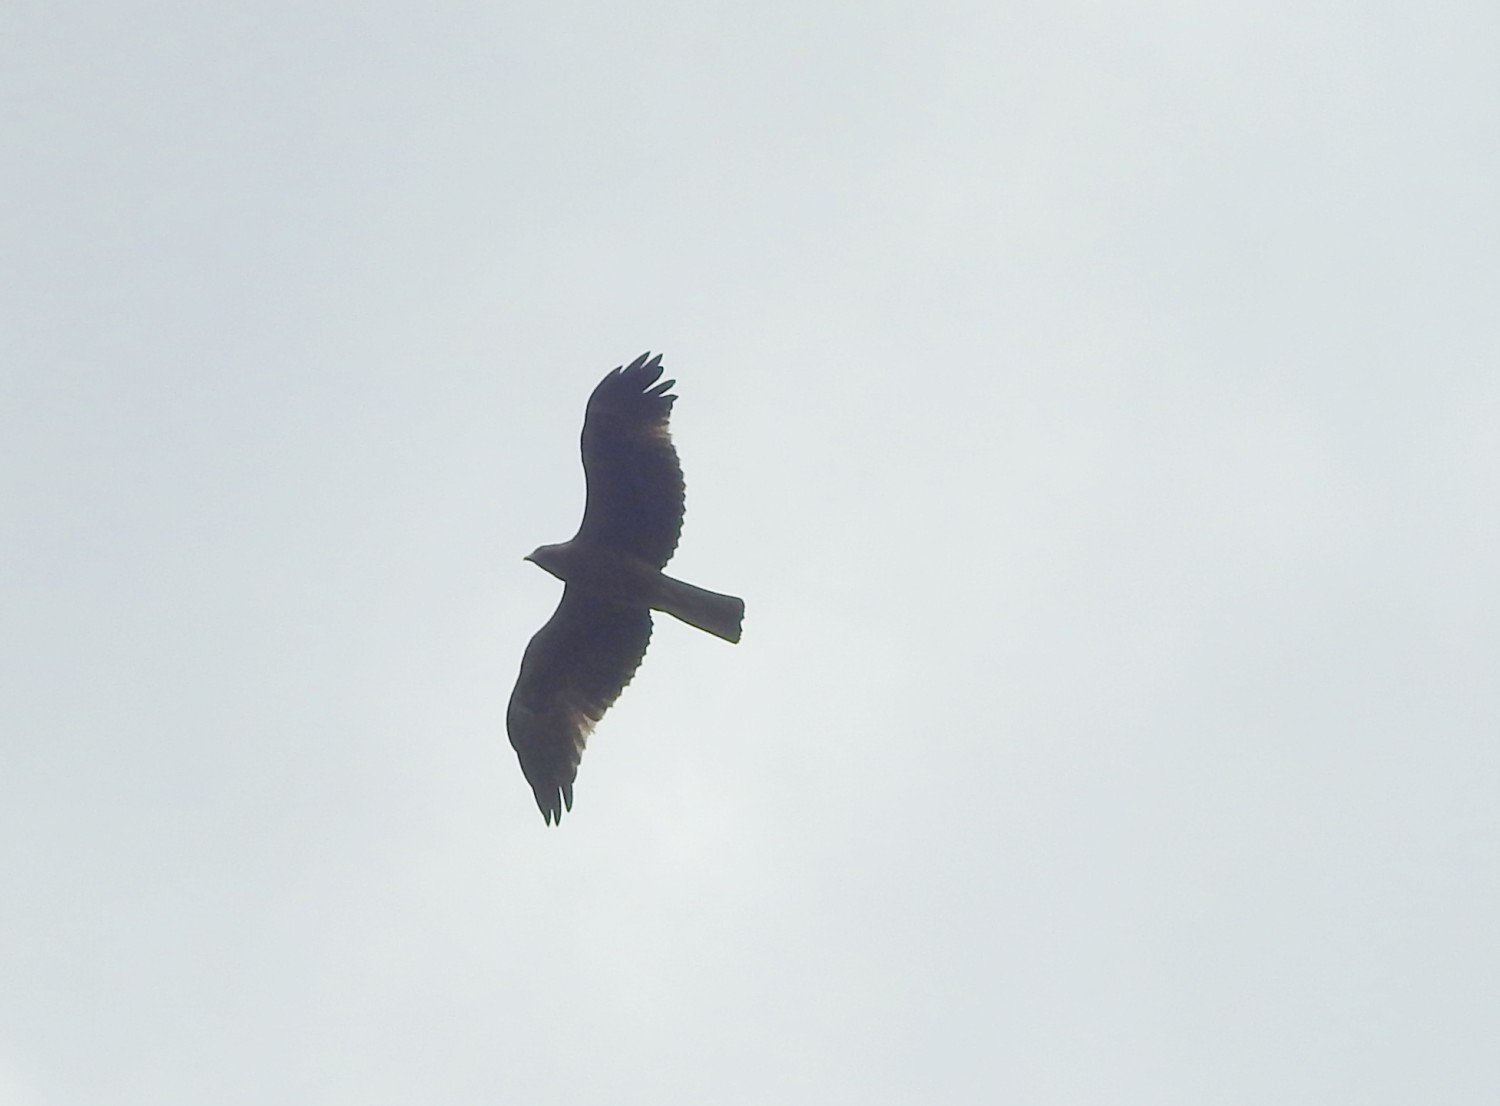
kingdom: Animalia
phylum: Chordata
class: Aves
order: Accipitriformes
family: Accipitridae
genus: Hieraaetus
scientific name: Hieraaetus pennatus
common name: Booted eagle
